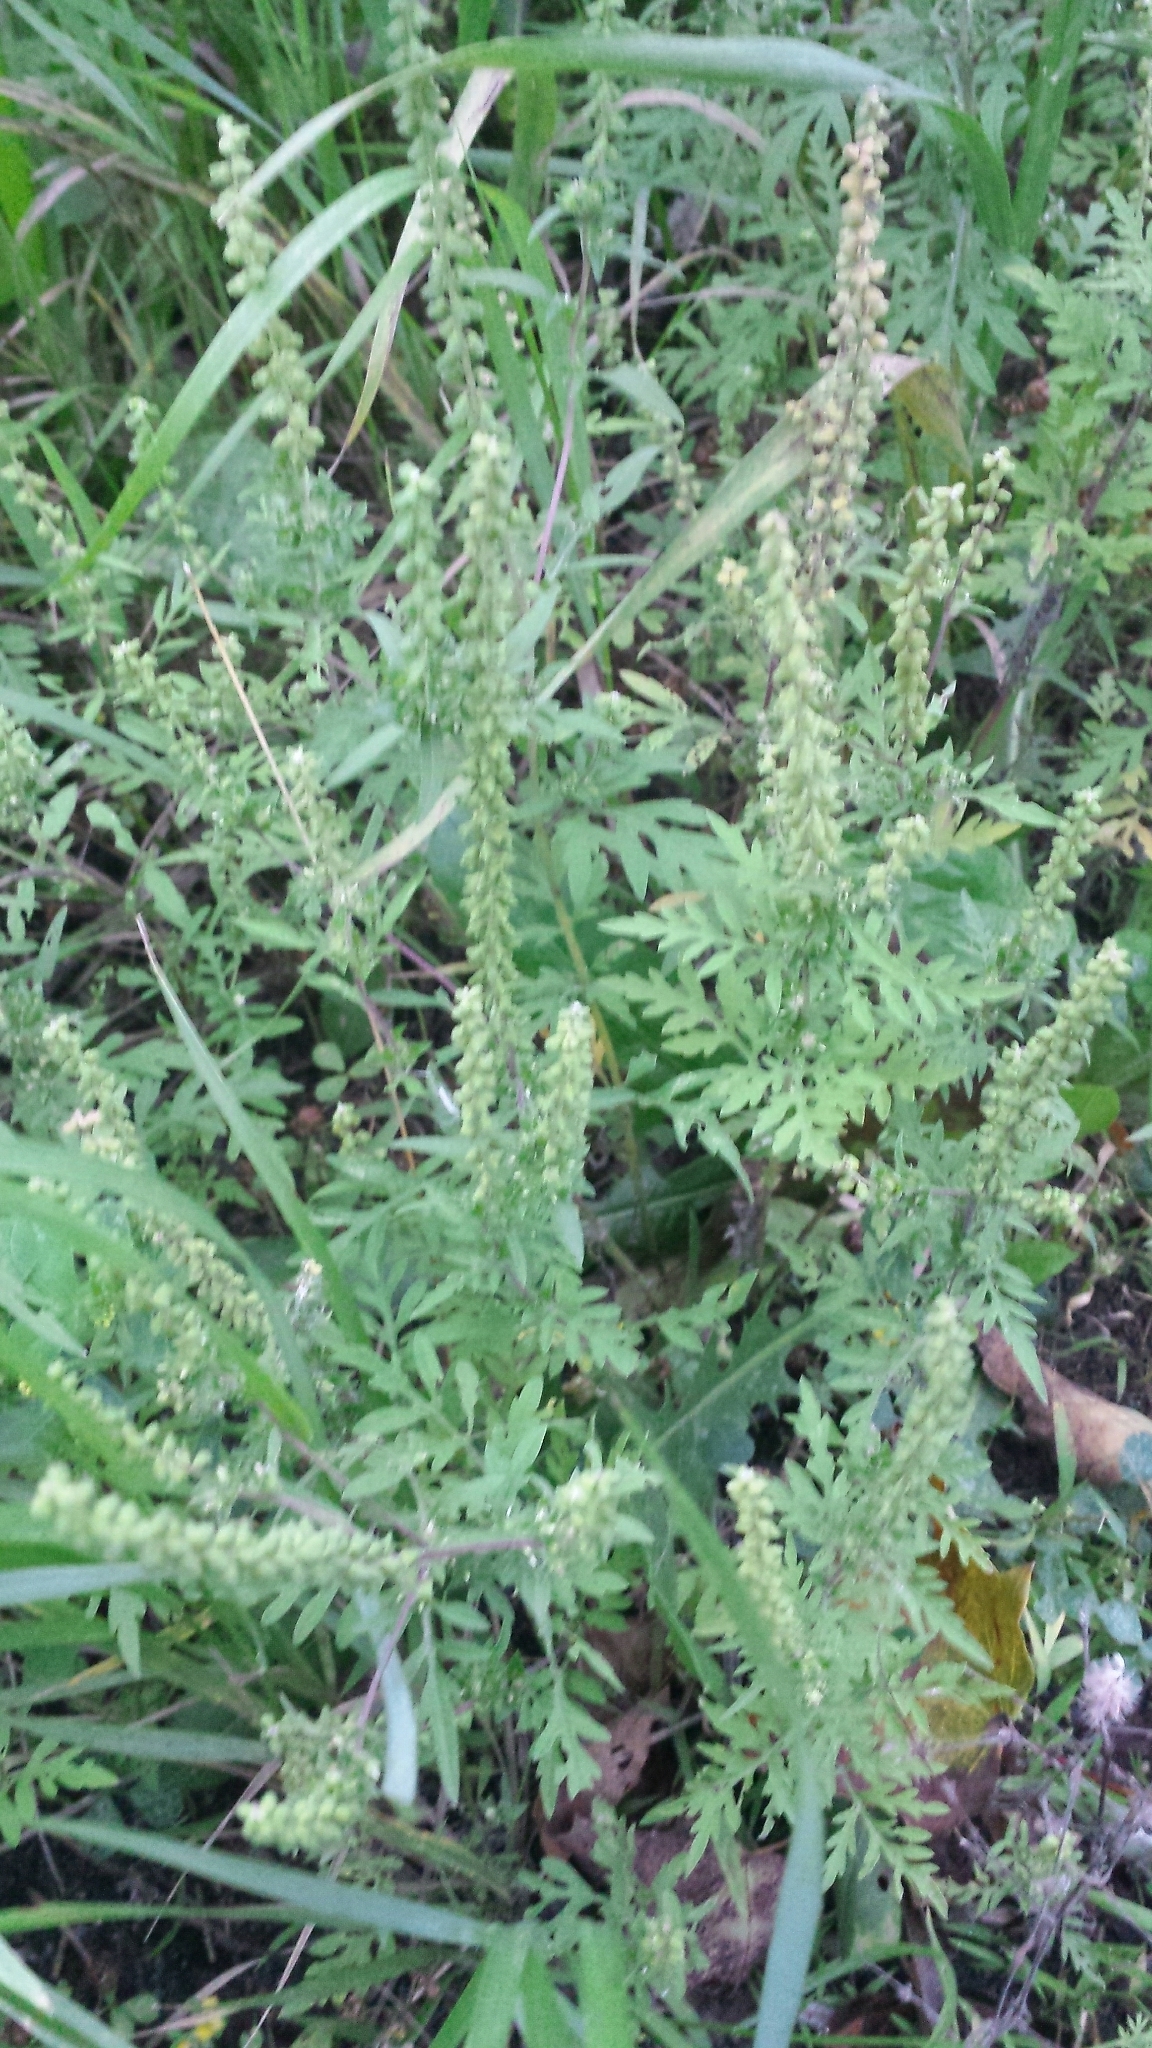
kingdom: Plantae
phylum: Tracheophyta
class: Magnoliopsida
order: Asterales
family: Asteraceae
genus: Ambrosia
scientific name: Ambrosia artemisiifolia
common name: Annual ragweed
